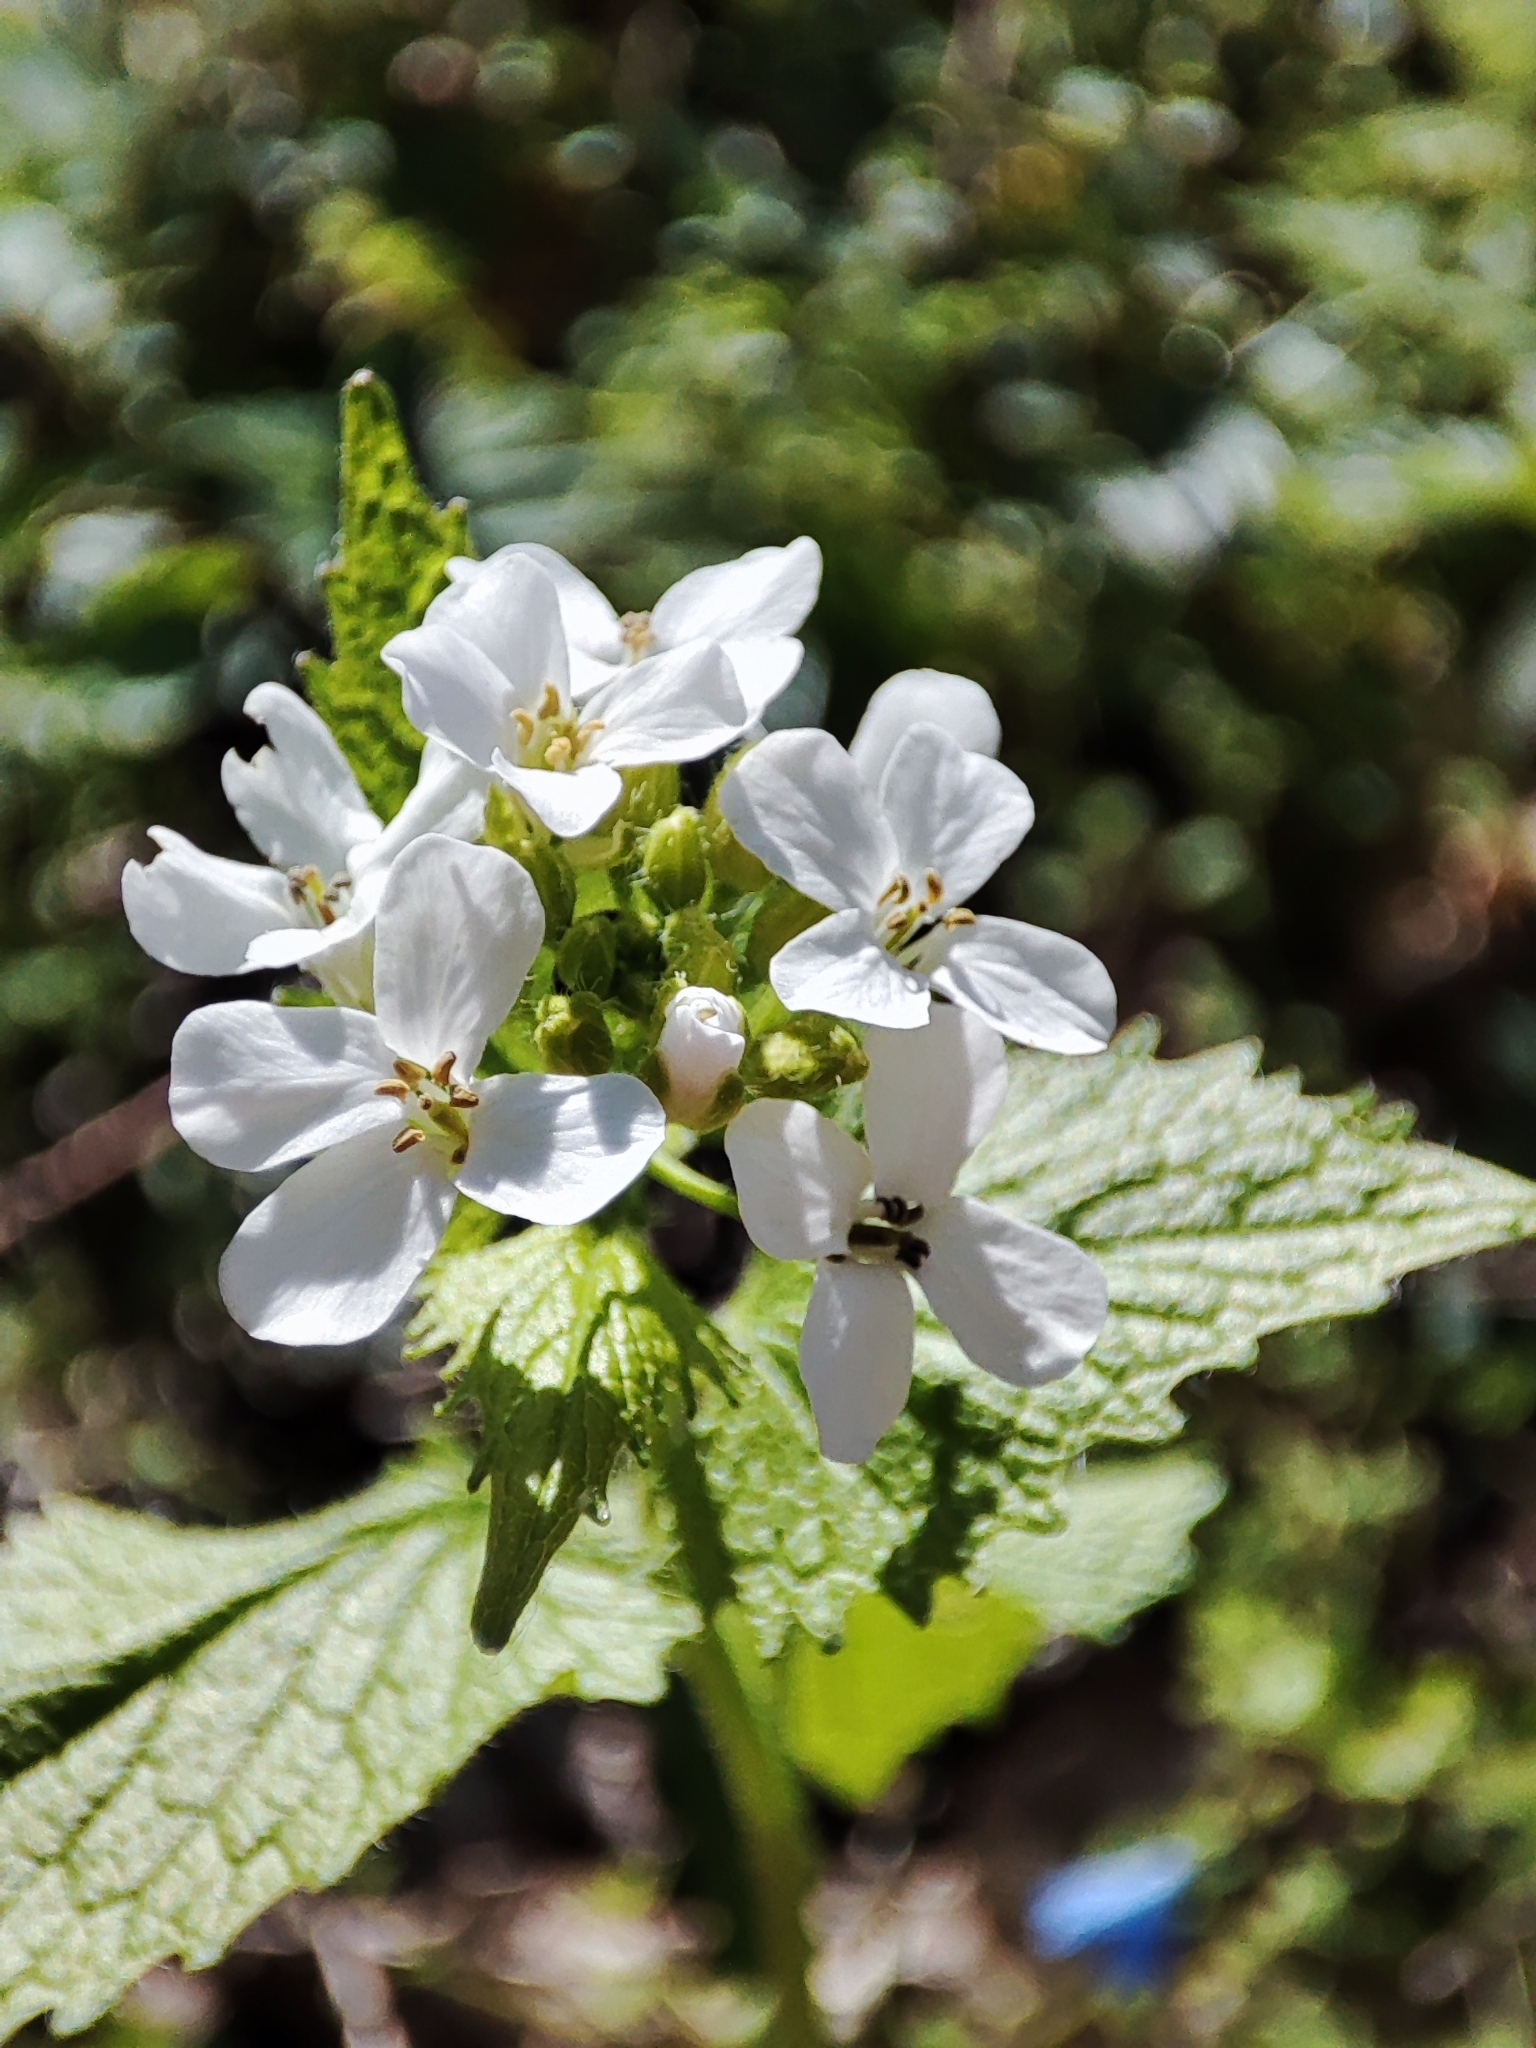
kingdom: Plantae
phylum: Tracheophyta
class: Magnoliopsida
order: Brassicales
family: Brassicaceae
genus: Alliaria
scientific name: Alliaria petiolata
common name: Garlic mustard
